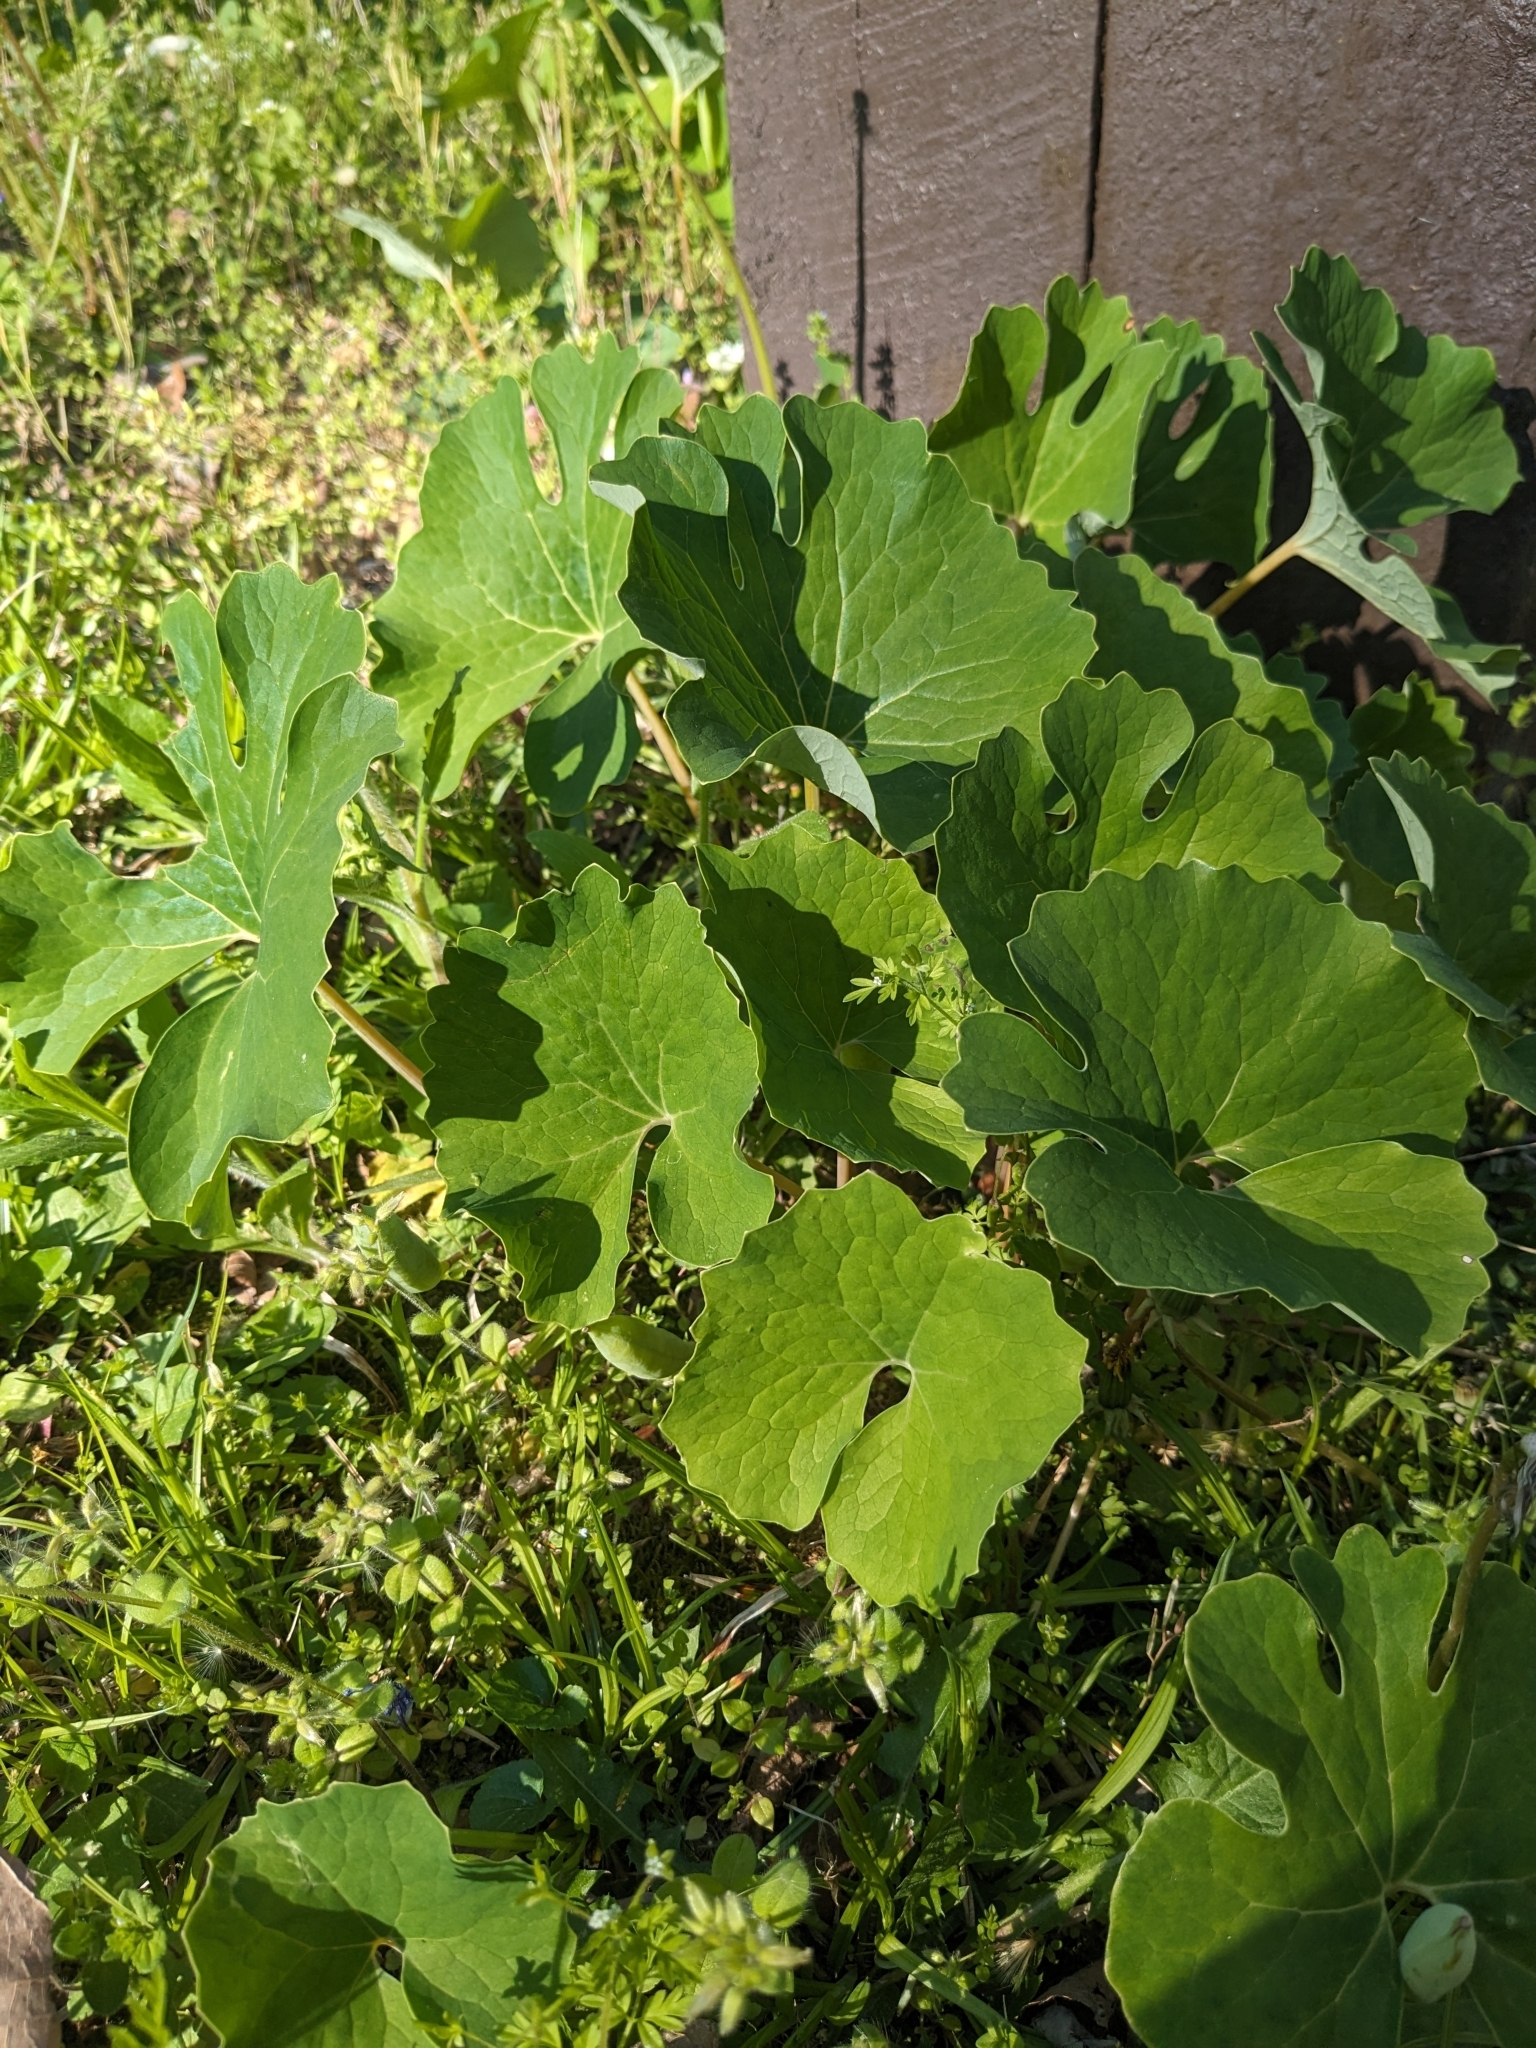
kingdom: Plantae
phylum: Tracheophyta
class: Magnoliopsida
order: Ranunculales
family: Papaveraceae
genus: Sanguinaria
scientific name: Sanguinaria canadensis
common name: Bloodroot
